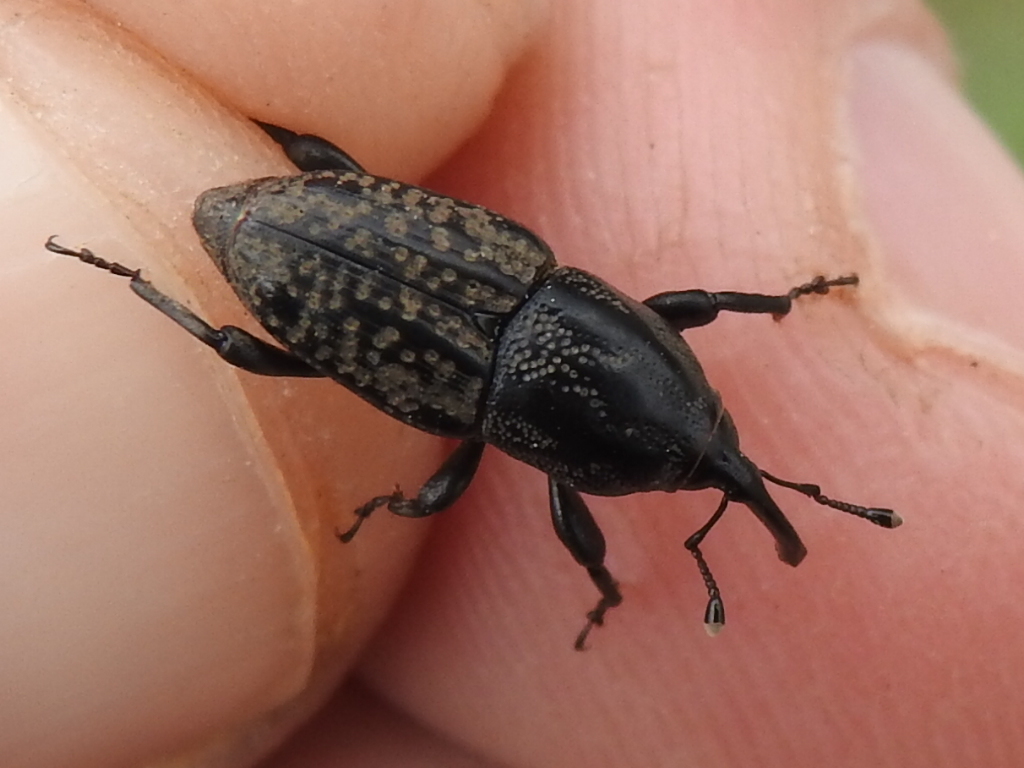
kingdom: Animalia
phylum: Arthropoda
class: Insecta
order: Coleoptera
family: Dryophthoridae
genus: Sphenophorus
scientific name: Sphenophorus cariosus
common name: Weevil
